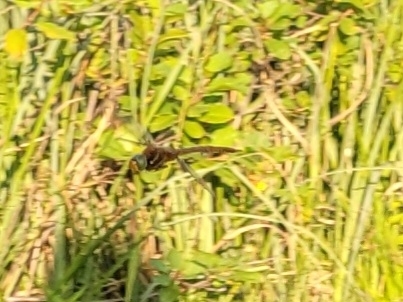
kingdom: Animalia
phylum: Arthropoda
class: Insecta
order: Odonata
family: Aeshnidae
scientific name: Aeshnidae
